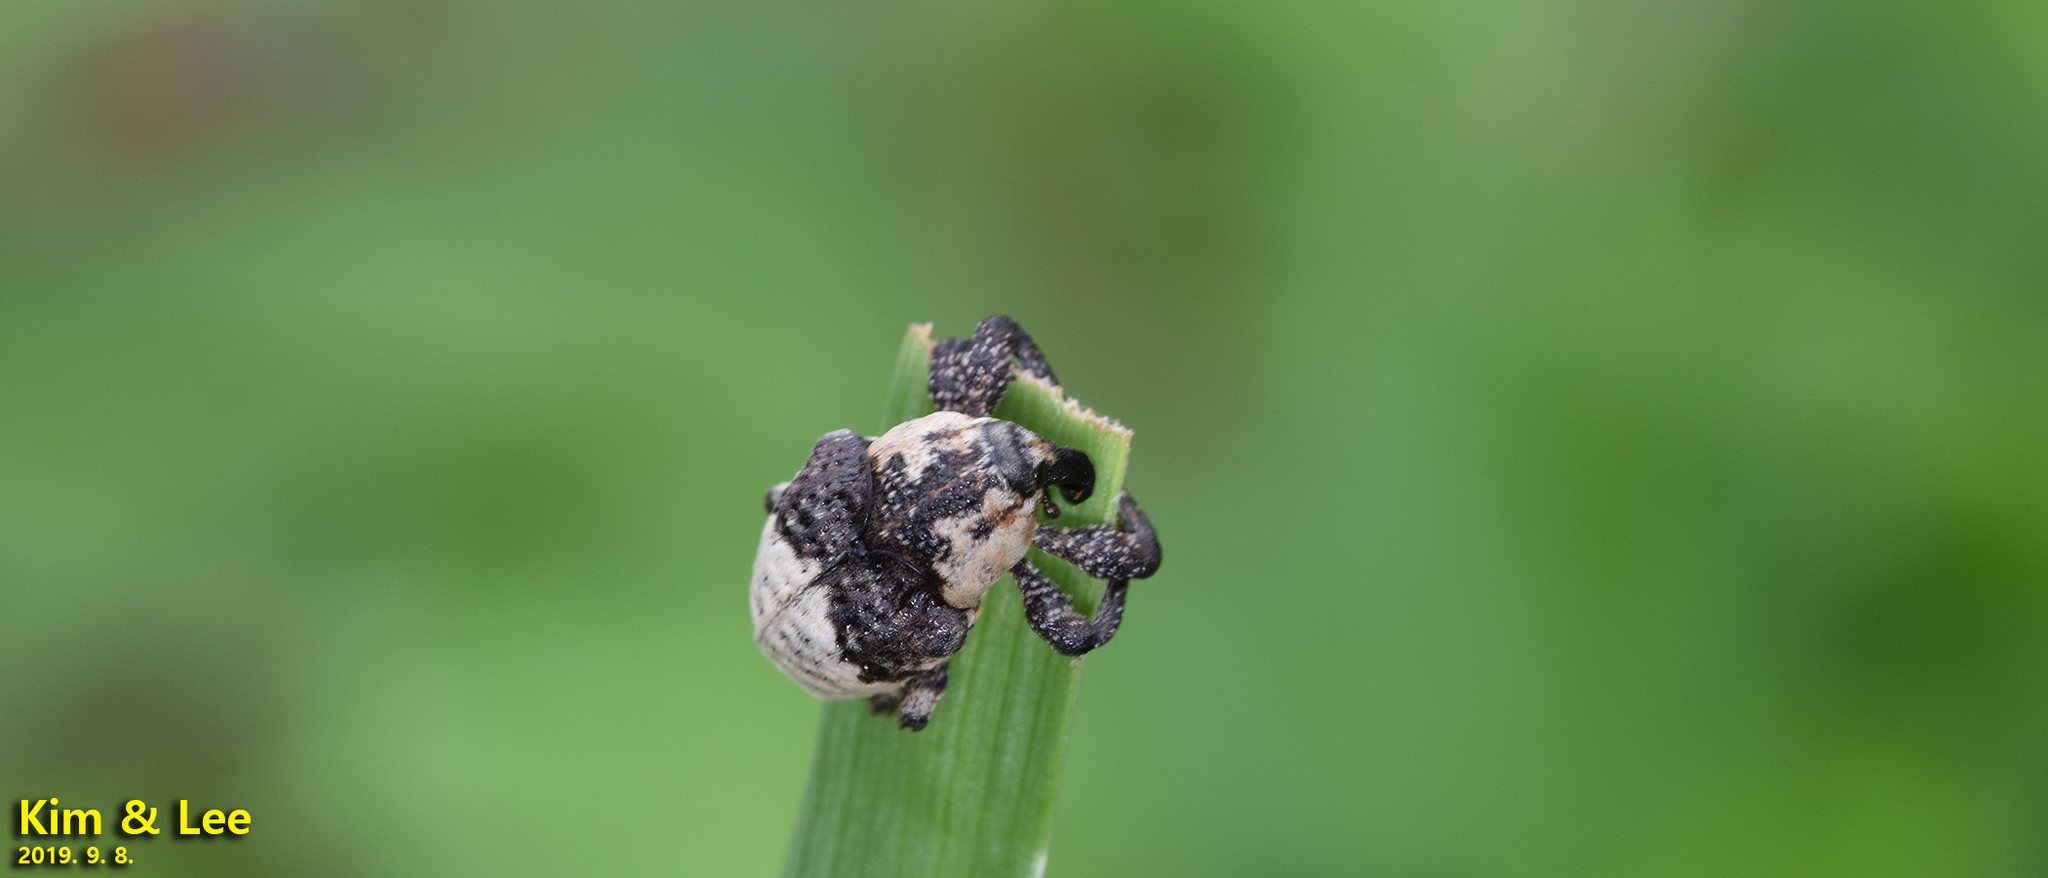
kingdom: Animalia
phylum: Arthropoda
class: Insecta
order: Coleoptera
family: Curculionidae
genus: Alcides
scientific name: Alcides trifidus
